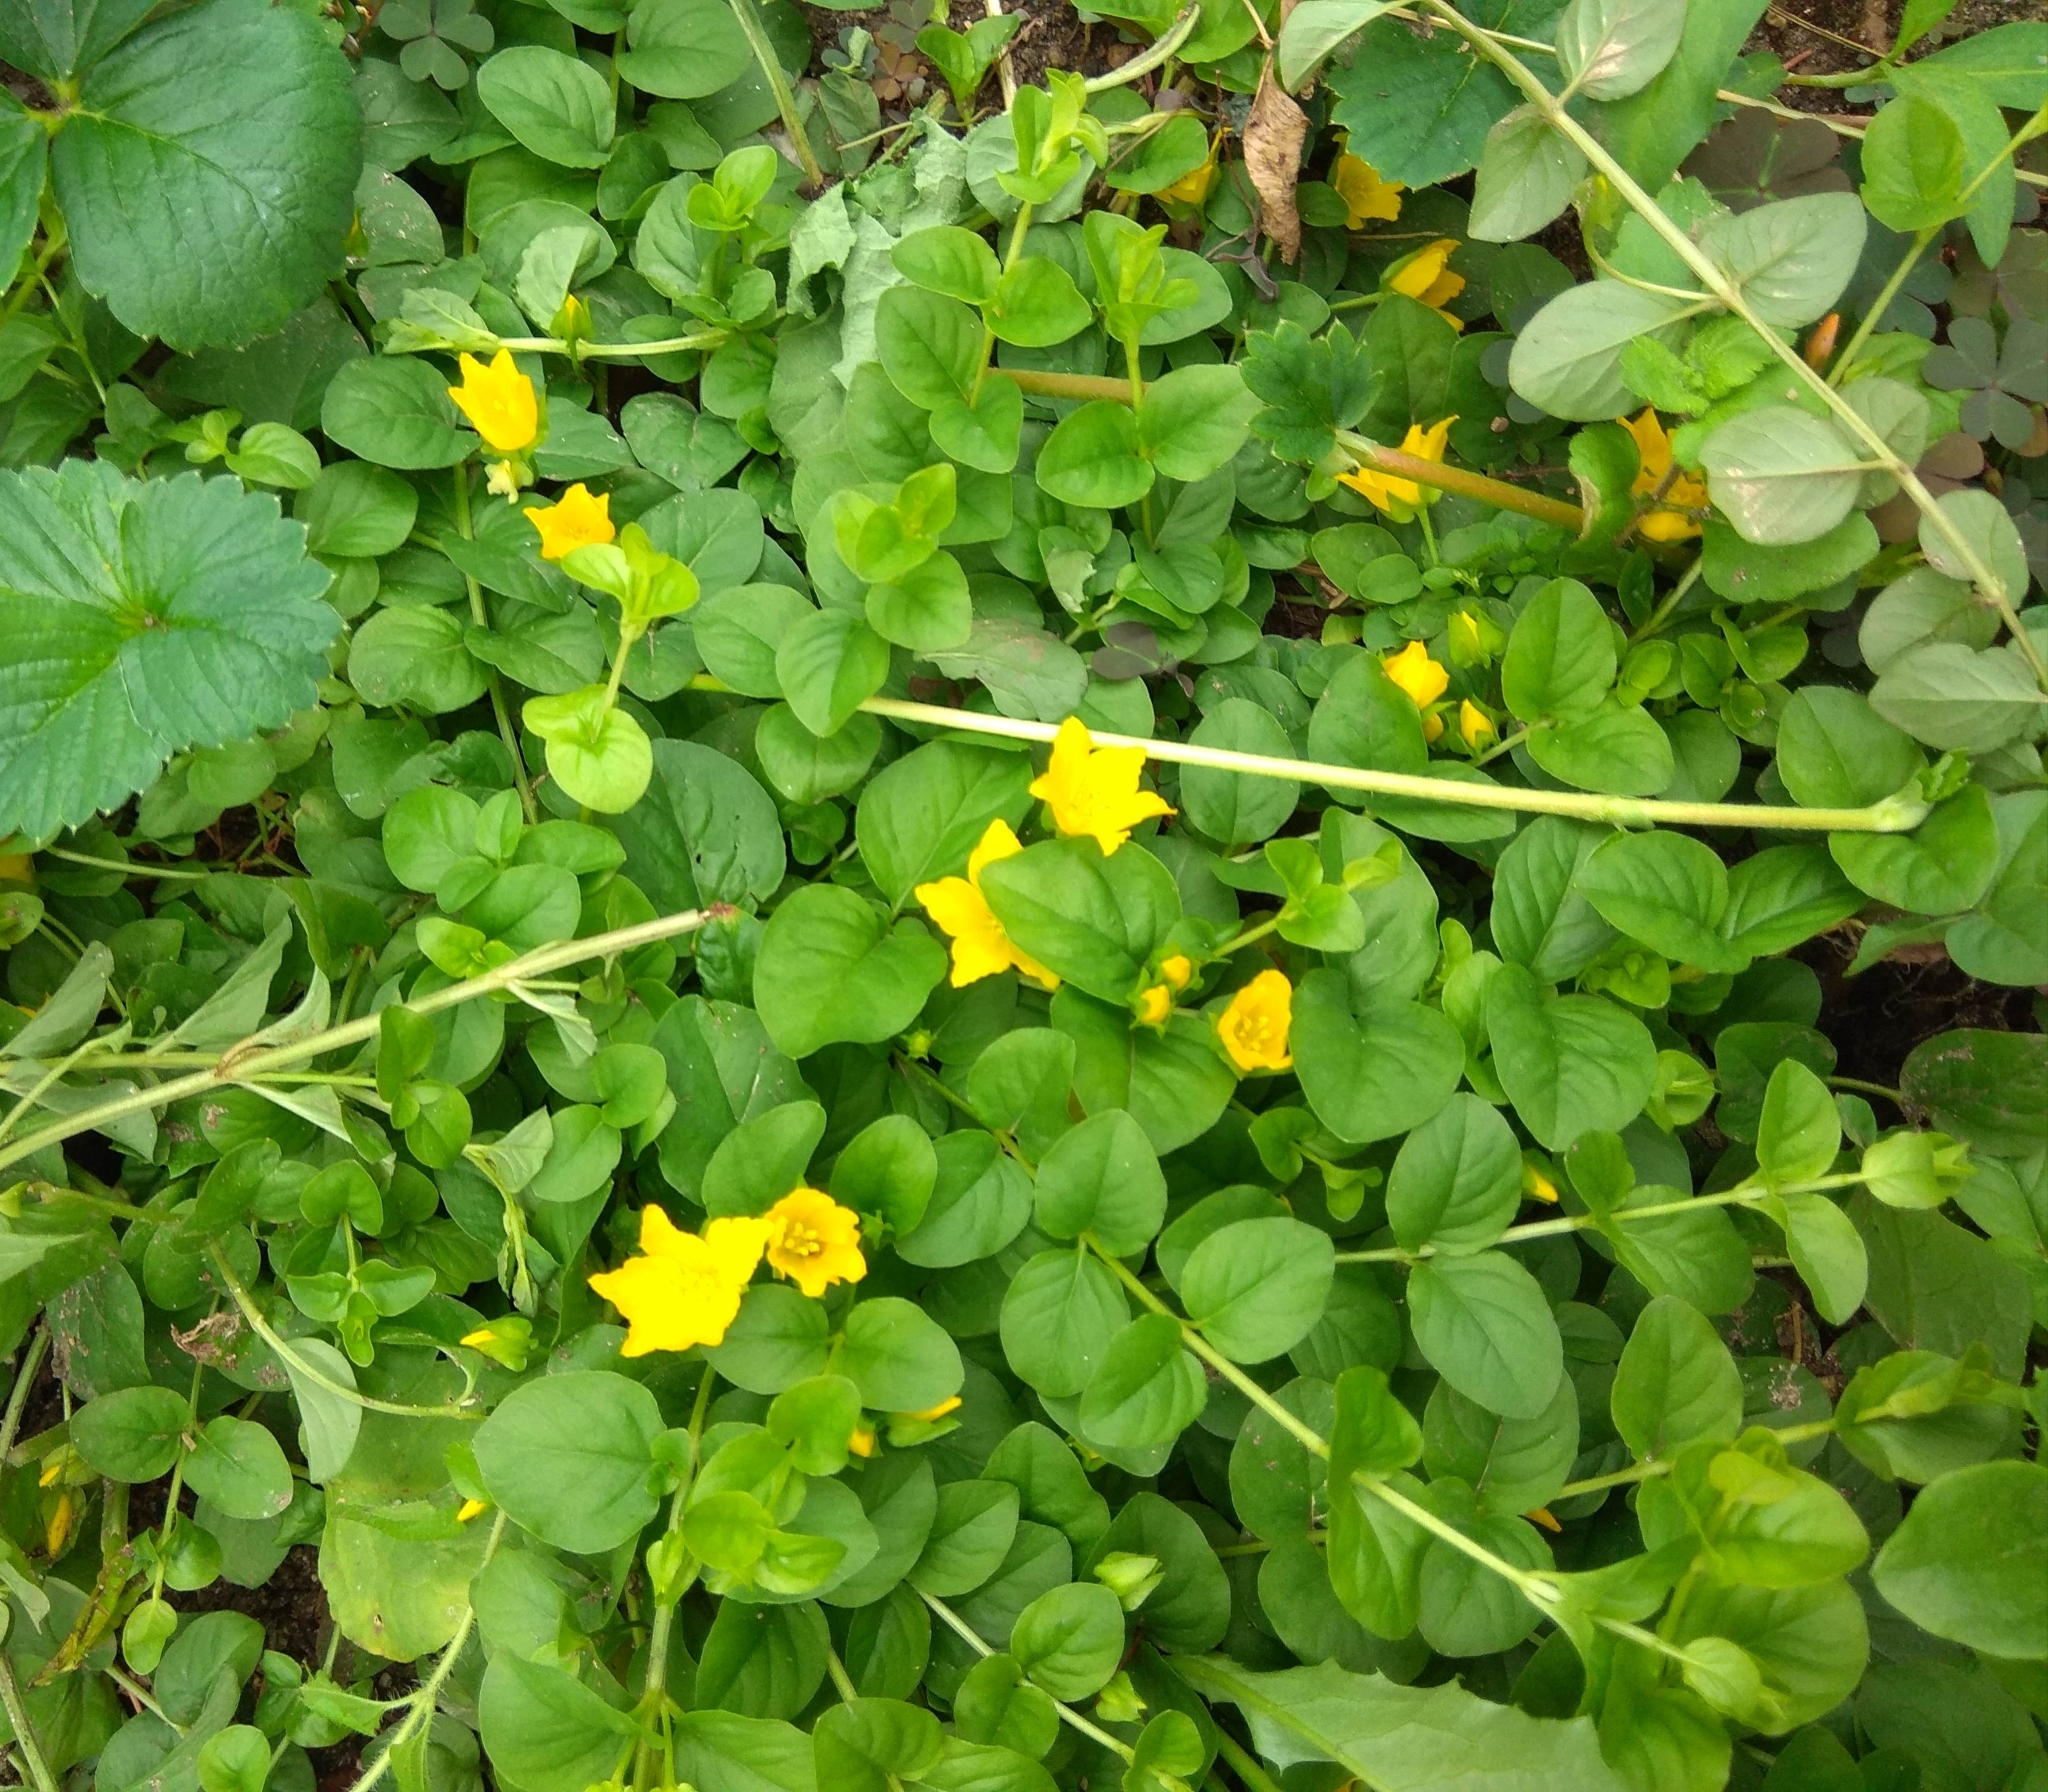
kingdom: Plantae
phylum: Tracheophyta
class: Magnoliopsida
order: Ericales
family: Primulaceae
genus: Lysimachia
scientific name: Lysimachia nummularia
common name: Moneywort
